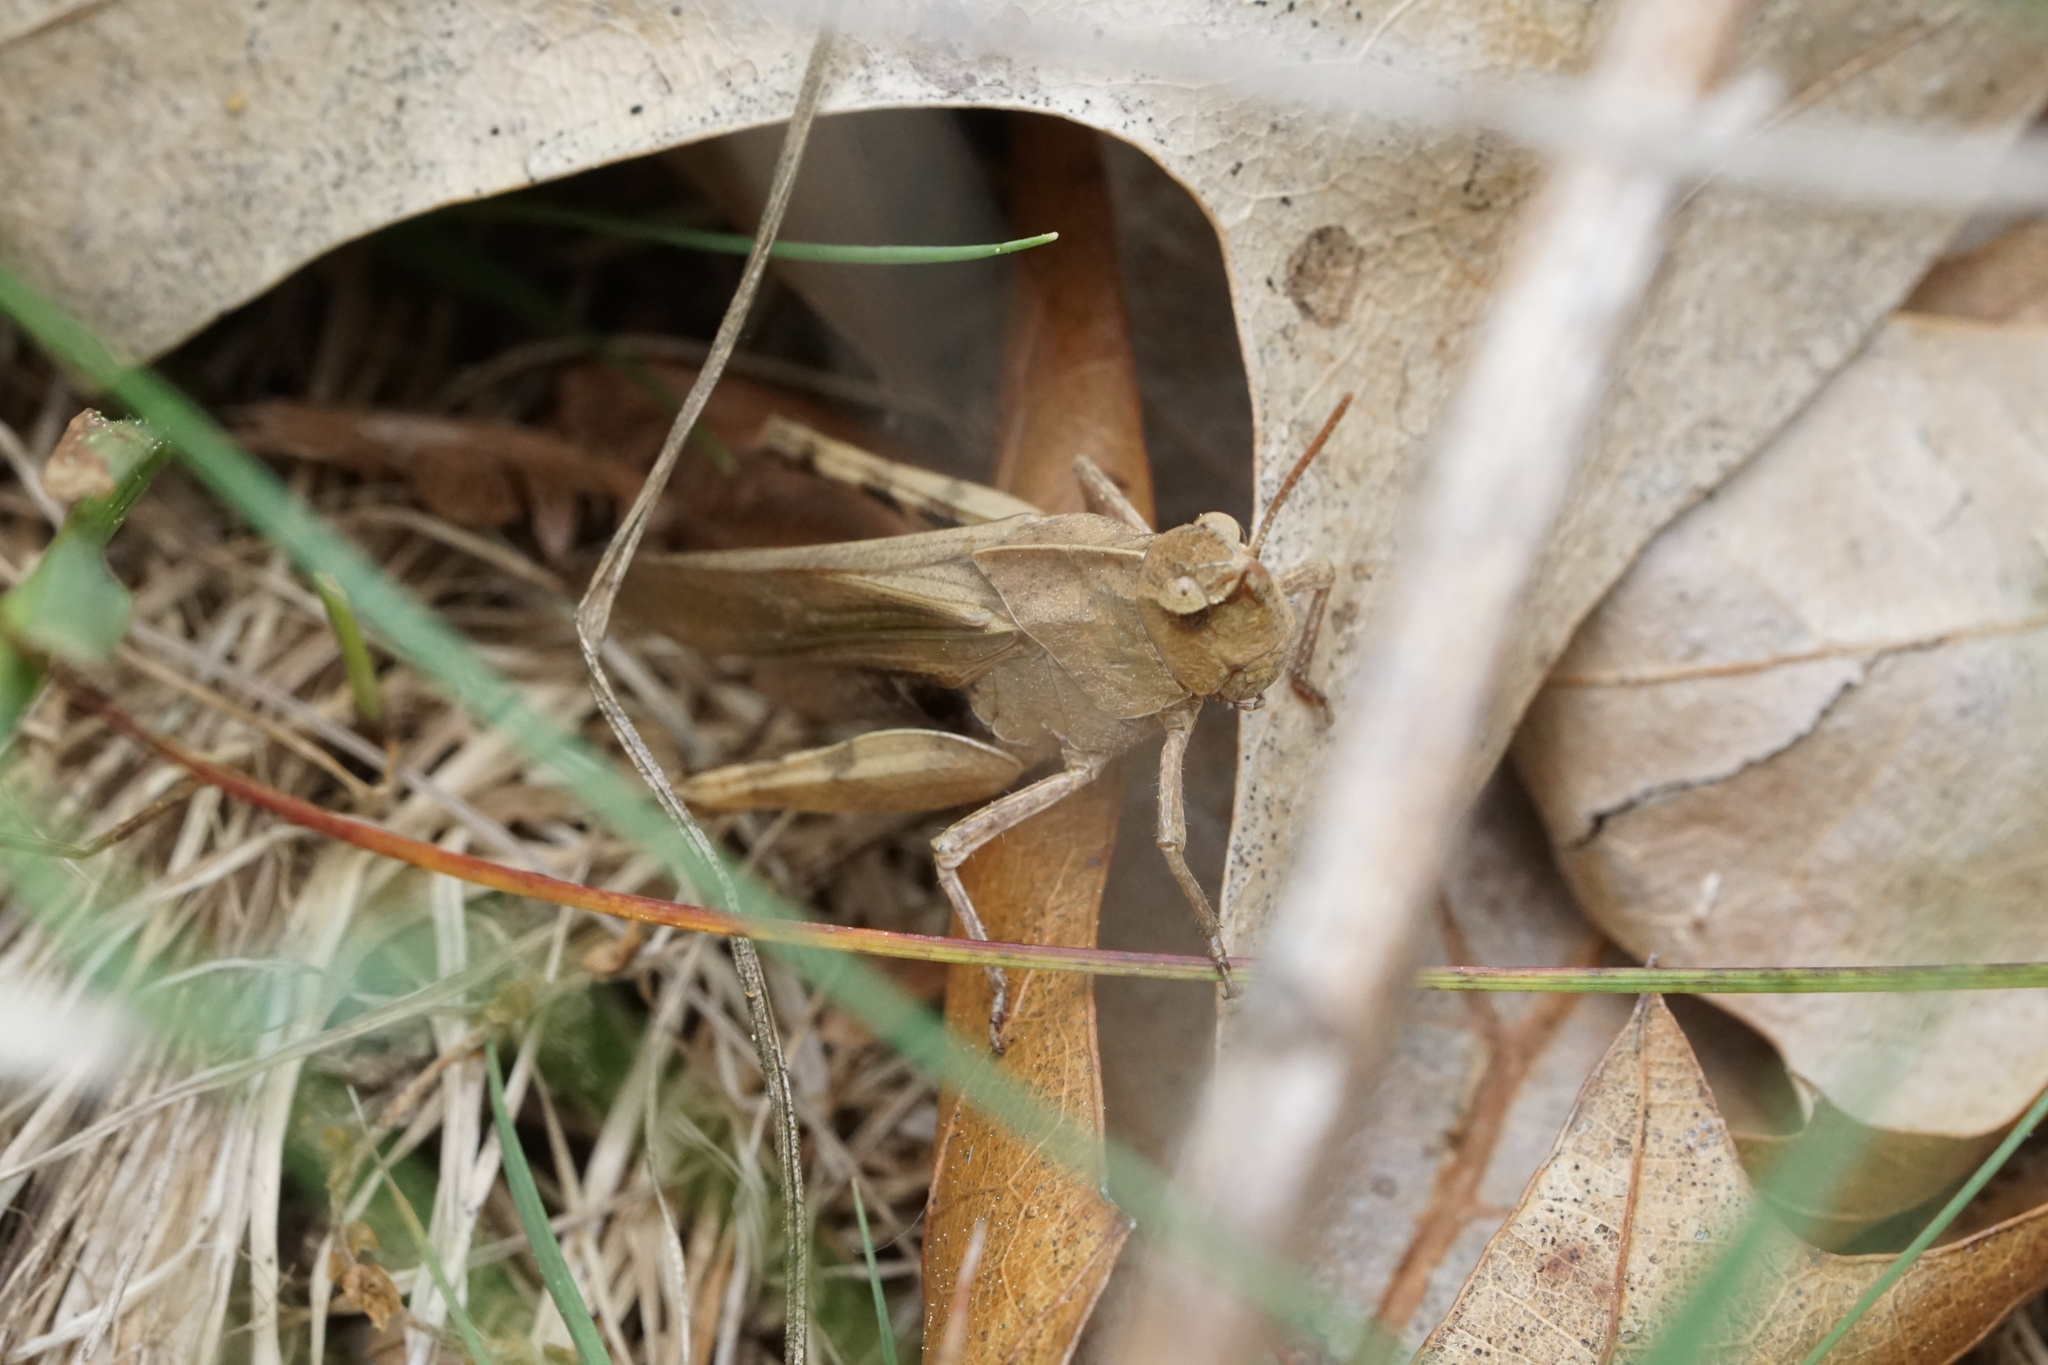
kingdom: Animalia
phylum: Arthropoda
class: Insecta
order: Orthoptera
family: Acrididae
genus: Chortophaga
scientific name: Chortophaga viridifasciata
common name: Green-striped grasshopper
